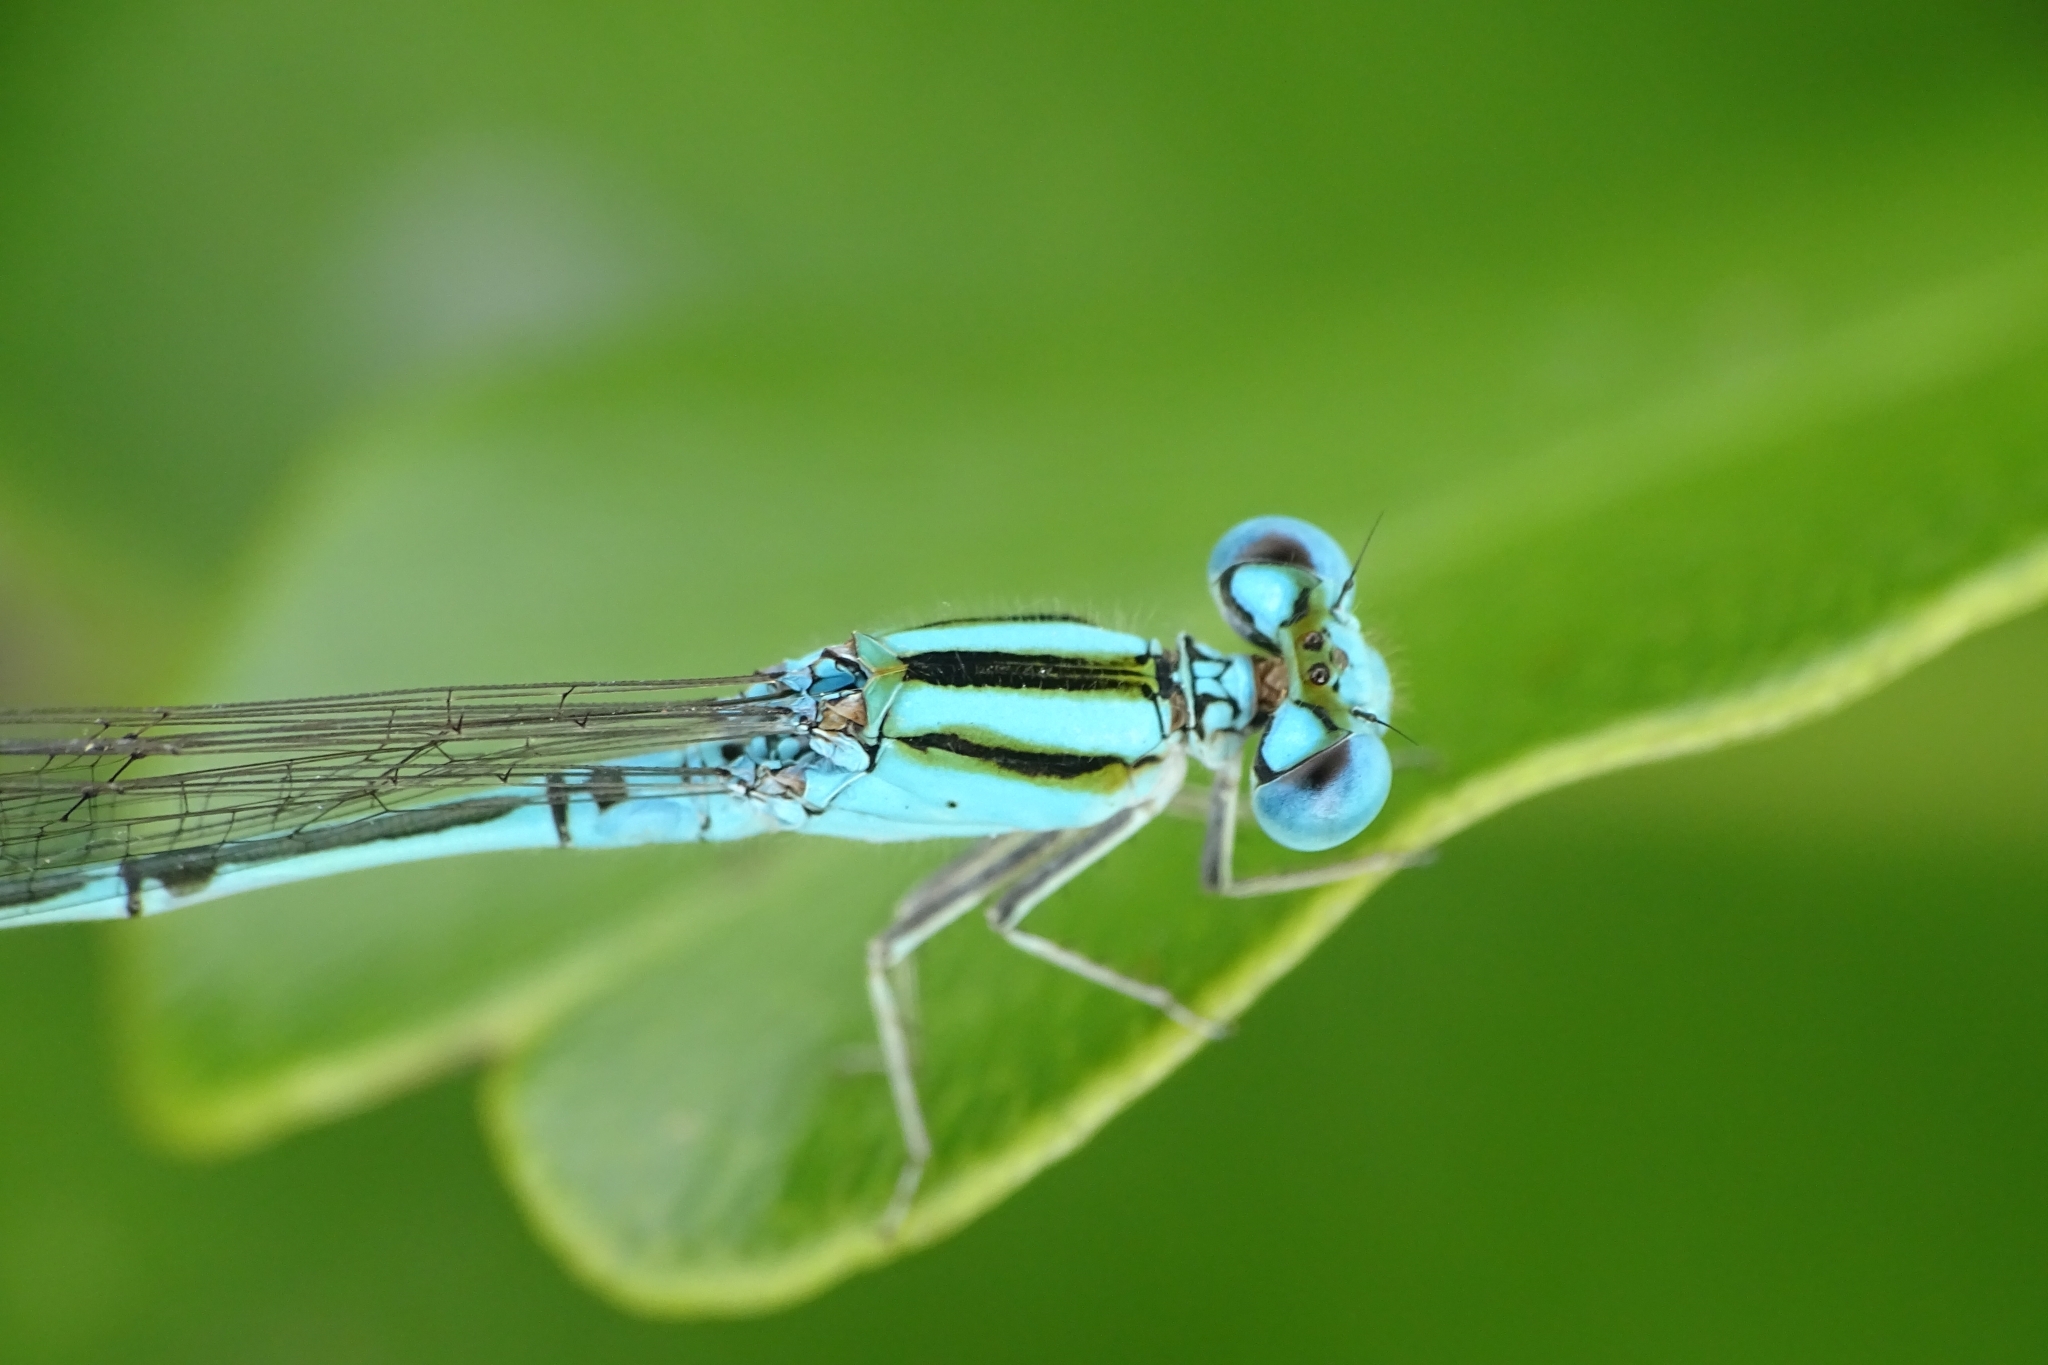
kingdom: Animalia
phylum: Arthropoda
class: Insecta
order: Odonata
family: Coenagrionidae
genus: Pseudagrion
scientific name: Pseudagrion microcephalum
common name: Blue riverdamsel
